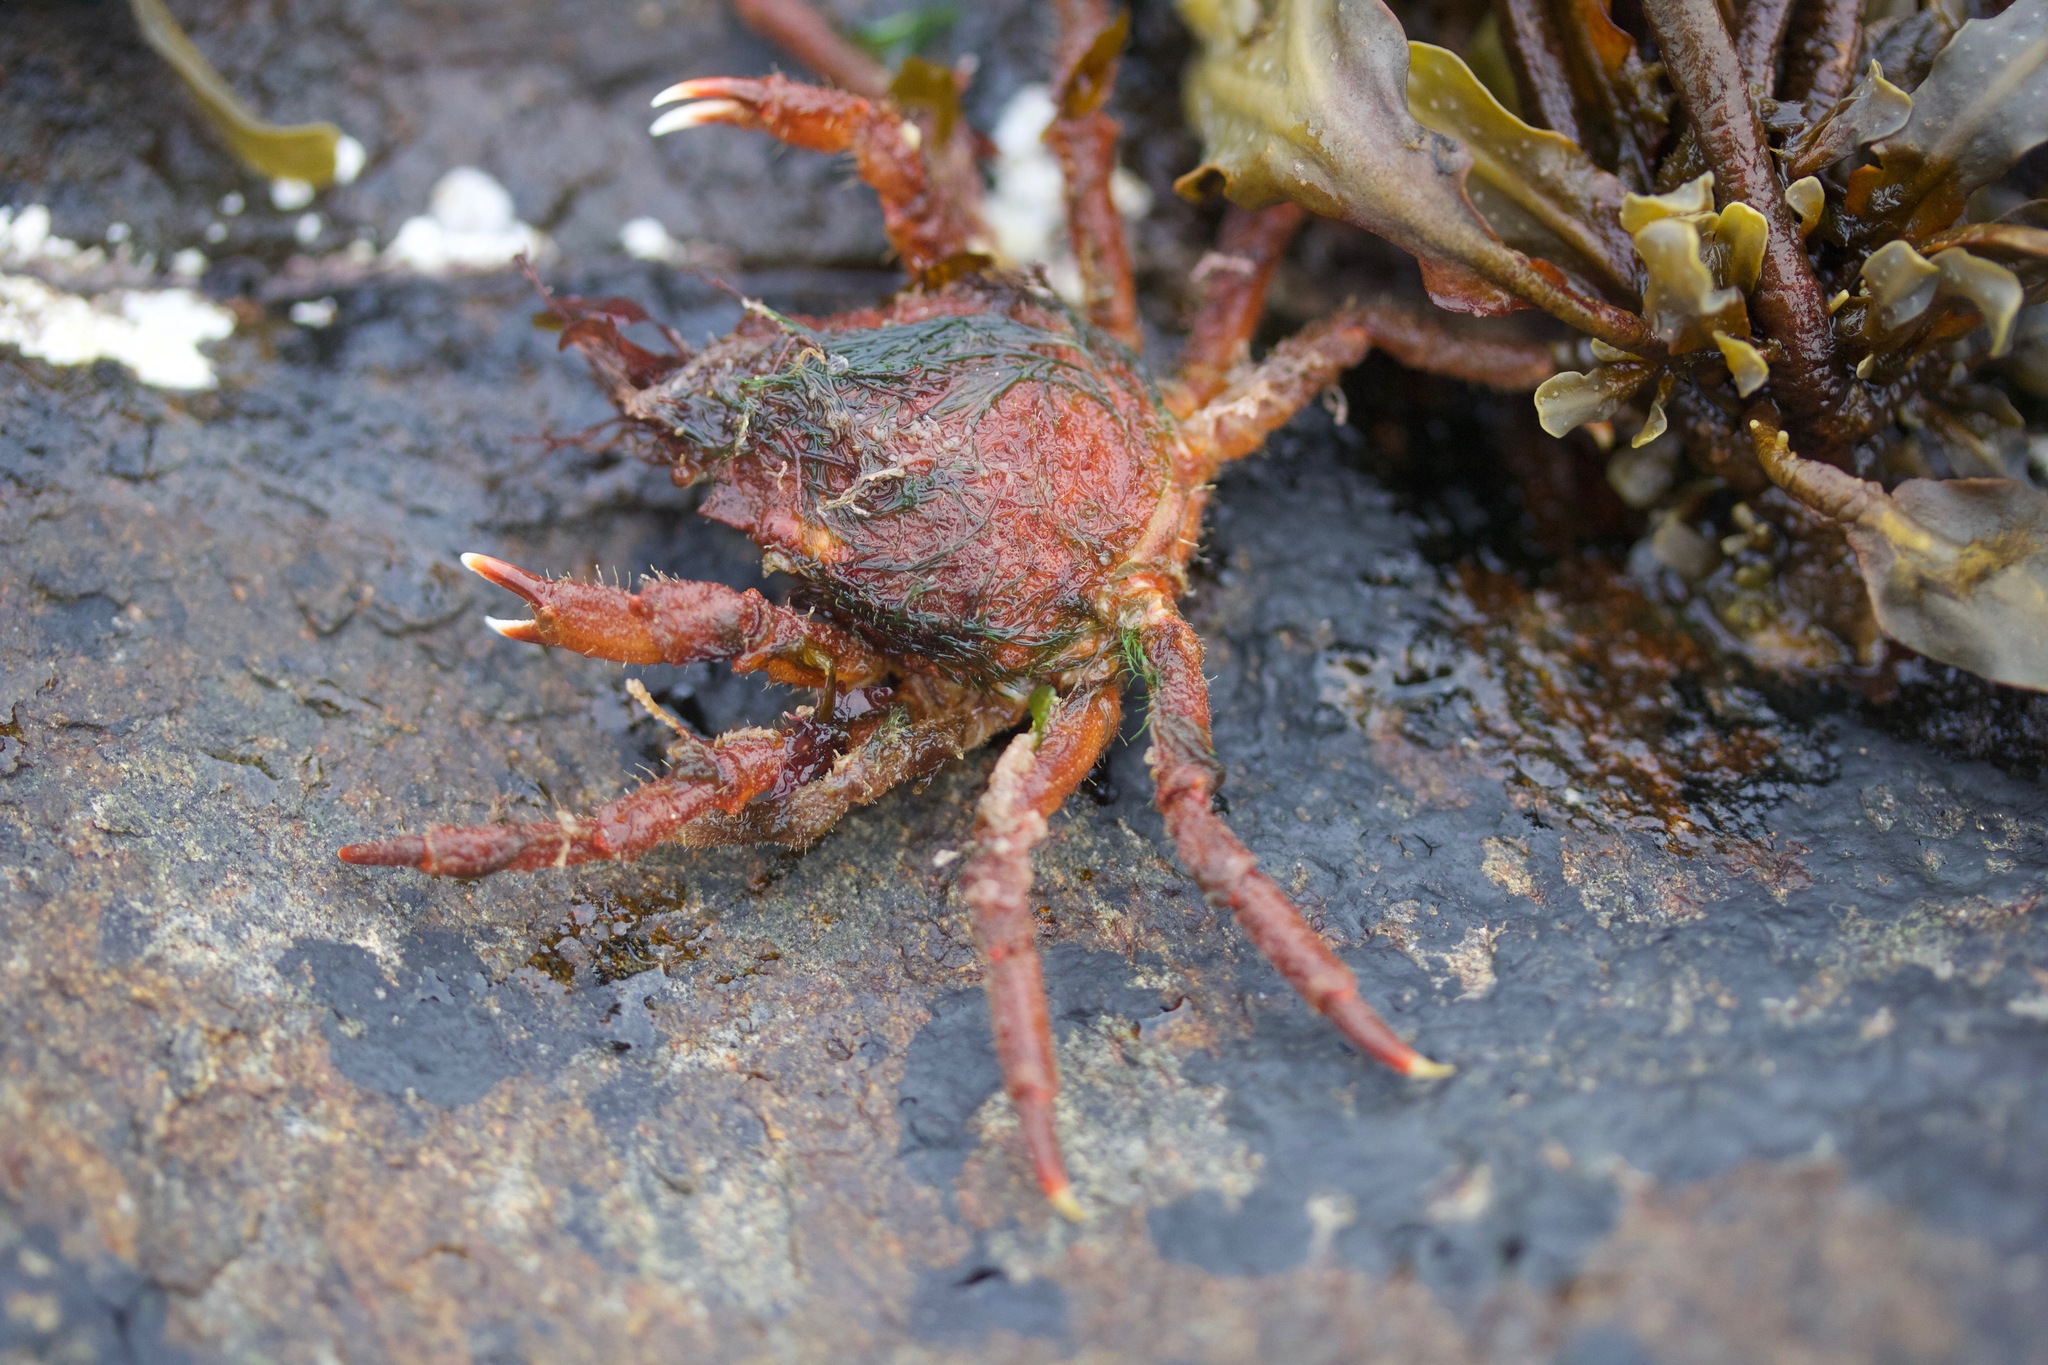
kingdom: Animalia
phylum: Arthropoda
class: Malacostraca
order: Decapoda
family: Oregoniidae
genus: Hyas
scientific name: Hyas araneus
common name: Great spider crab
